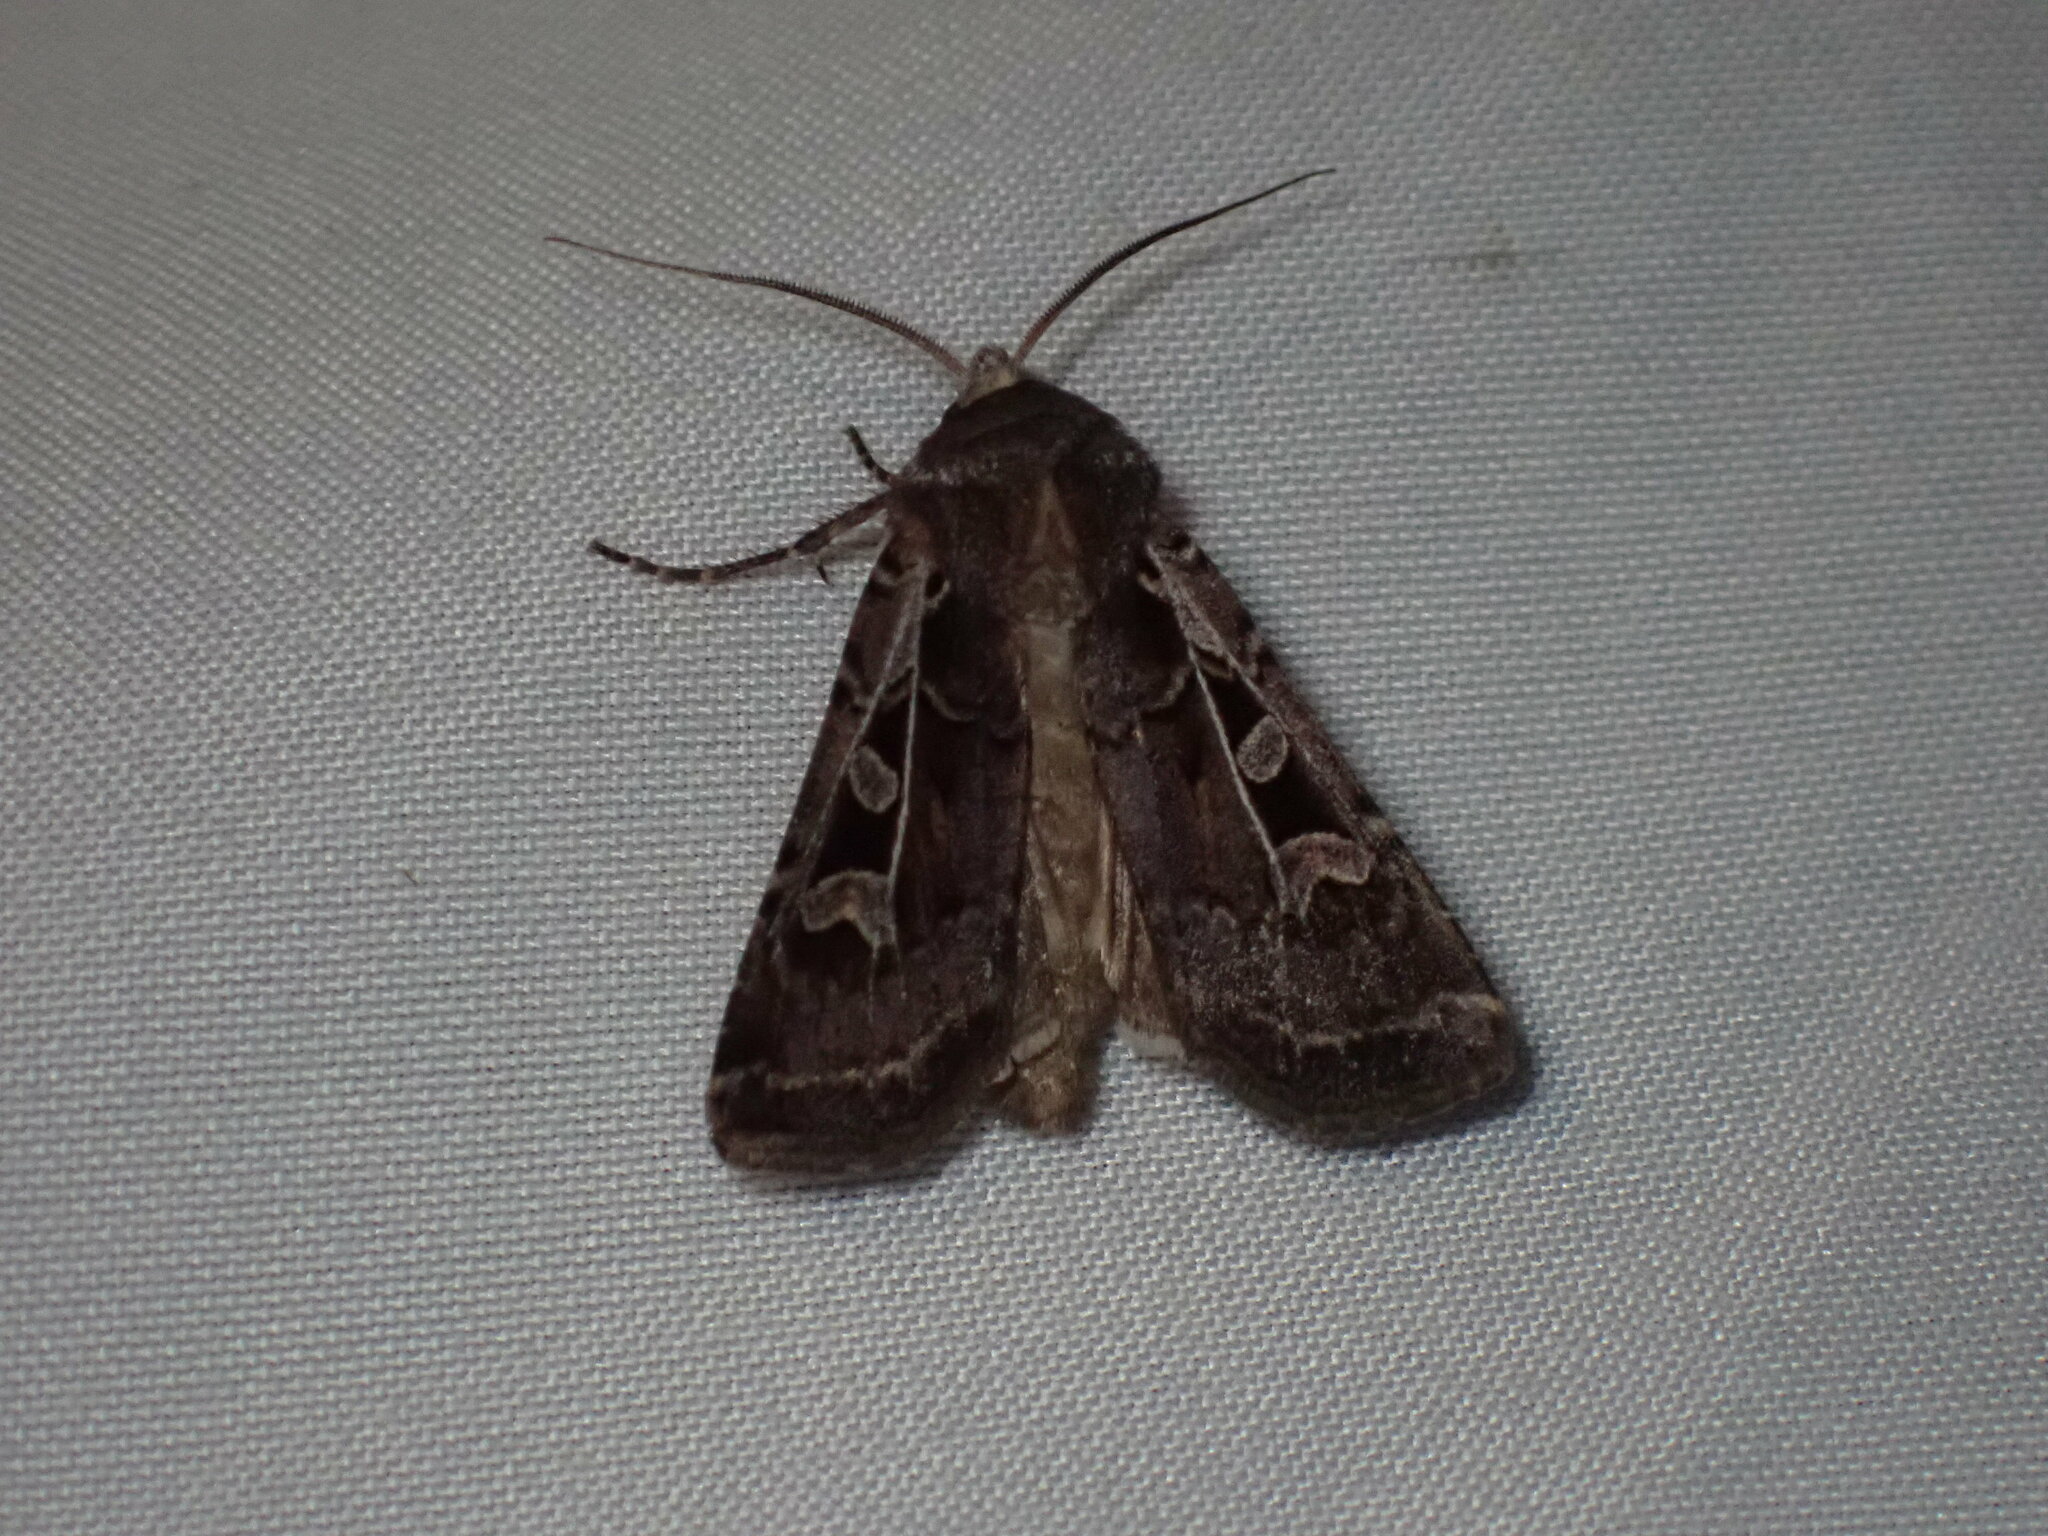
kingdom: Animalia
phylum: Arthropoda
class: Insecta
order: Lepidoptera
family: Noctuidae
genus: Euxoa
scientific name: Euxoa divergens
